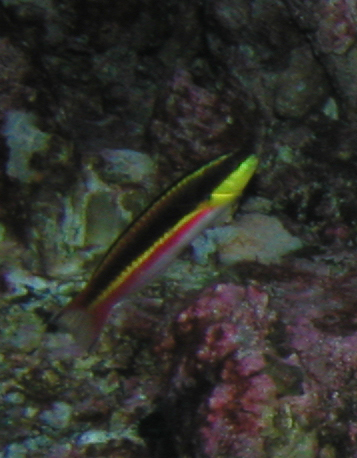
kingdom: Animalia
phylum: Chordata
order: Perciformes
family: Labridae
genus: Thalassoma
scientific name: Thalassoma lucasanum
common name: Cortez rainbow wrasse
